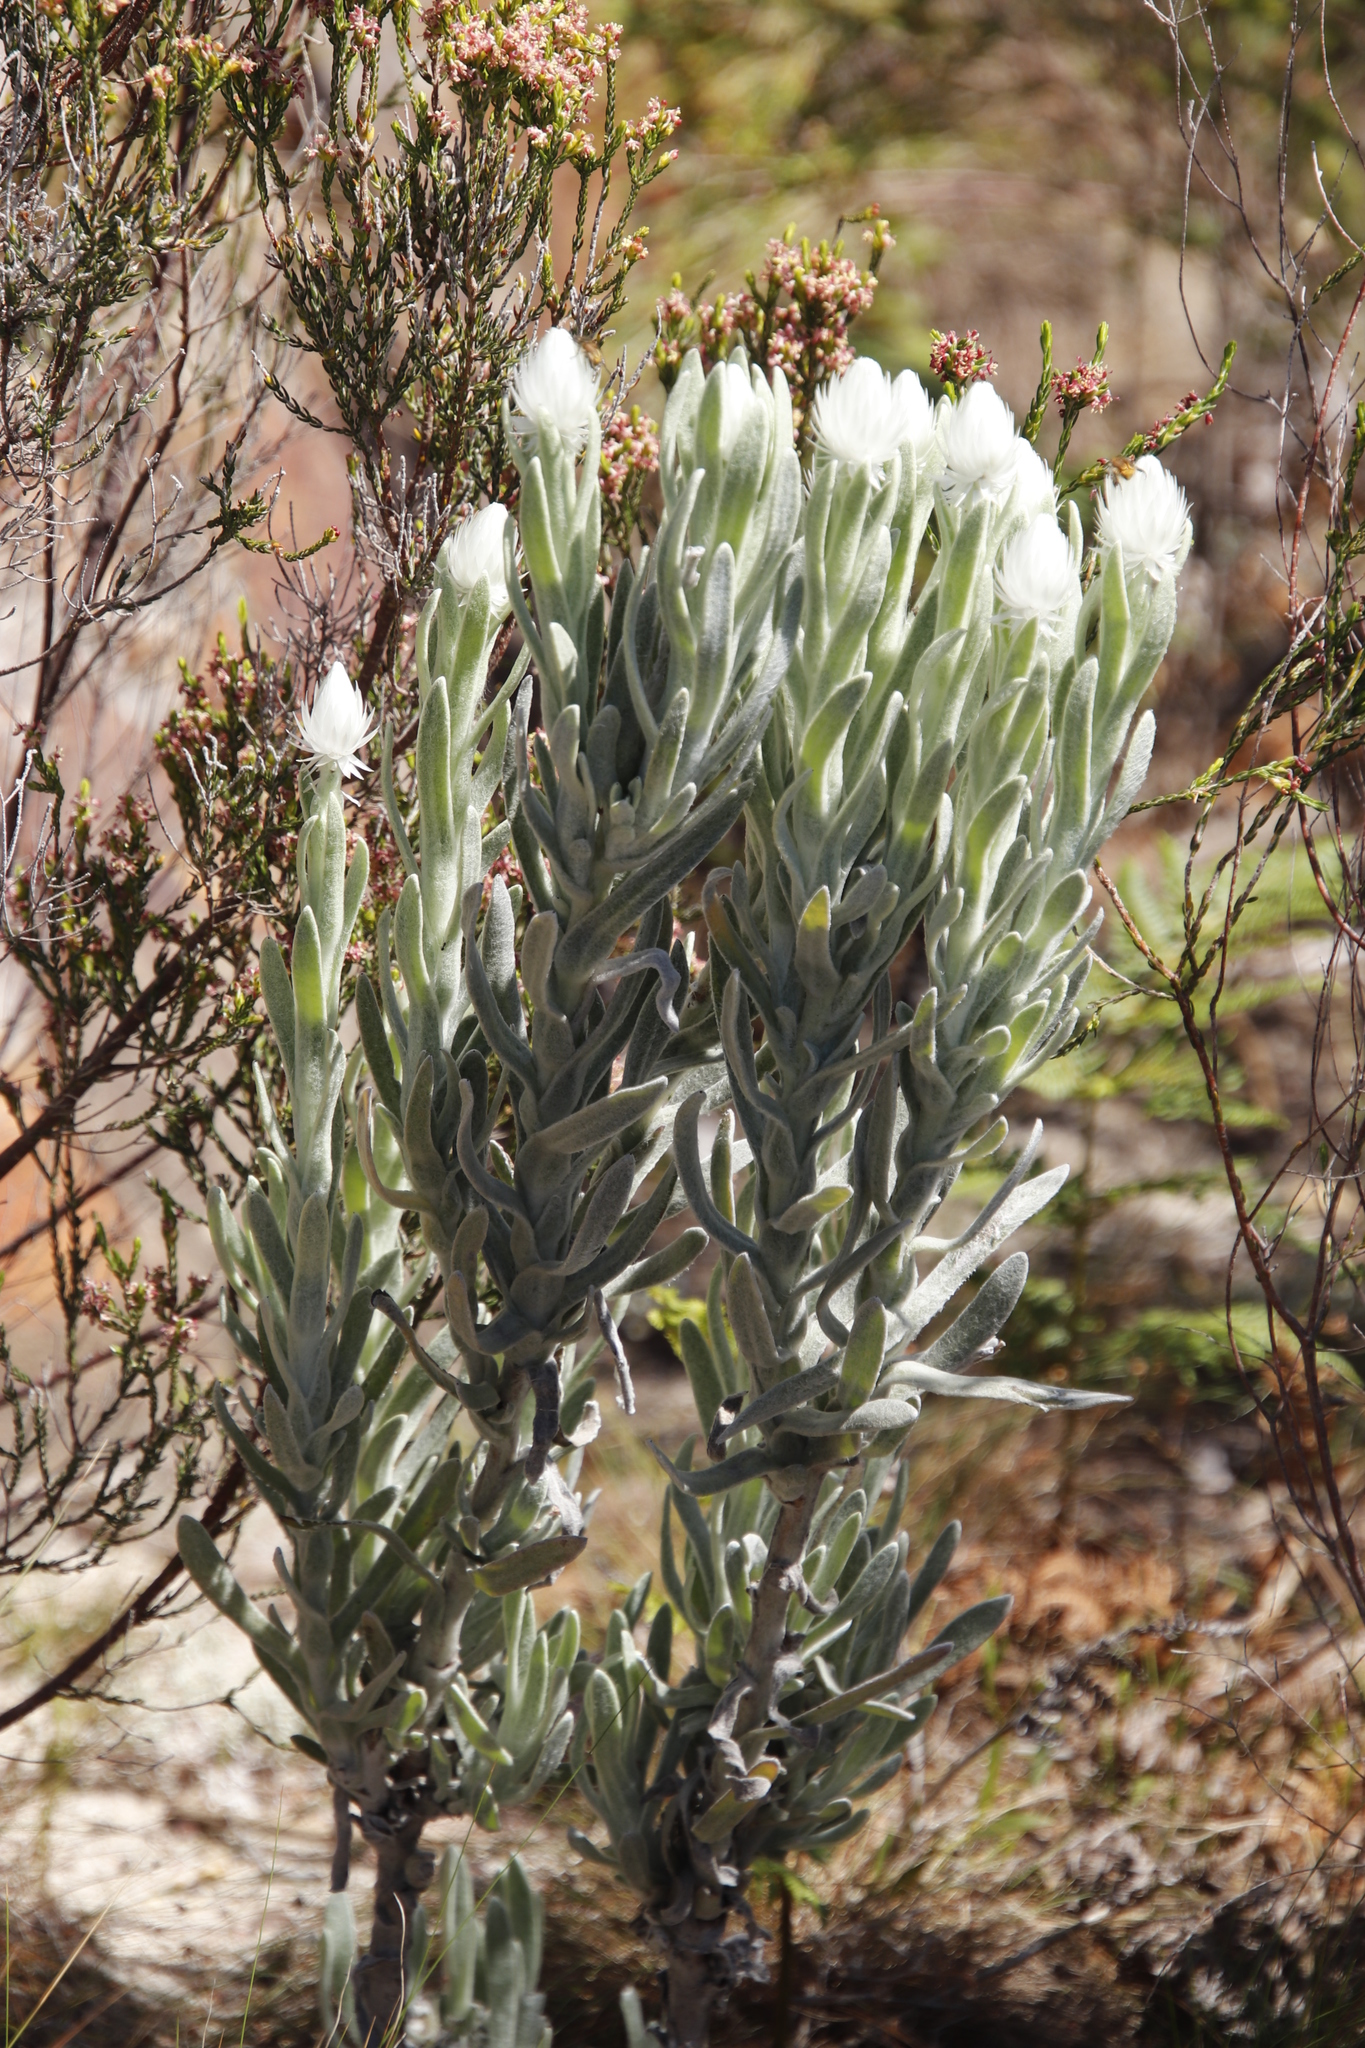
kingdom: Plantae
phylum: Tracheophyta
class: Magnoliopsida
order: Asterales
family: Asteraceae
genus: Syncarpha
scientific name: Syncarpha vestita
